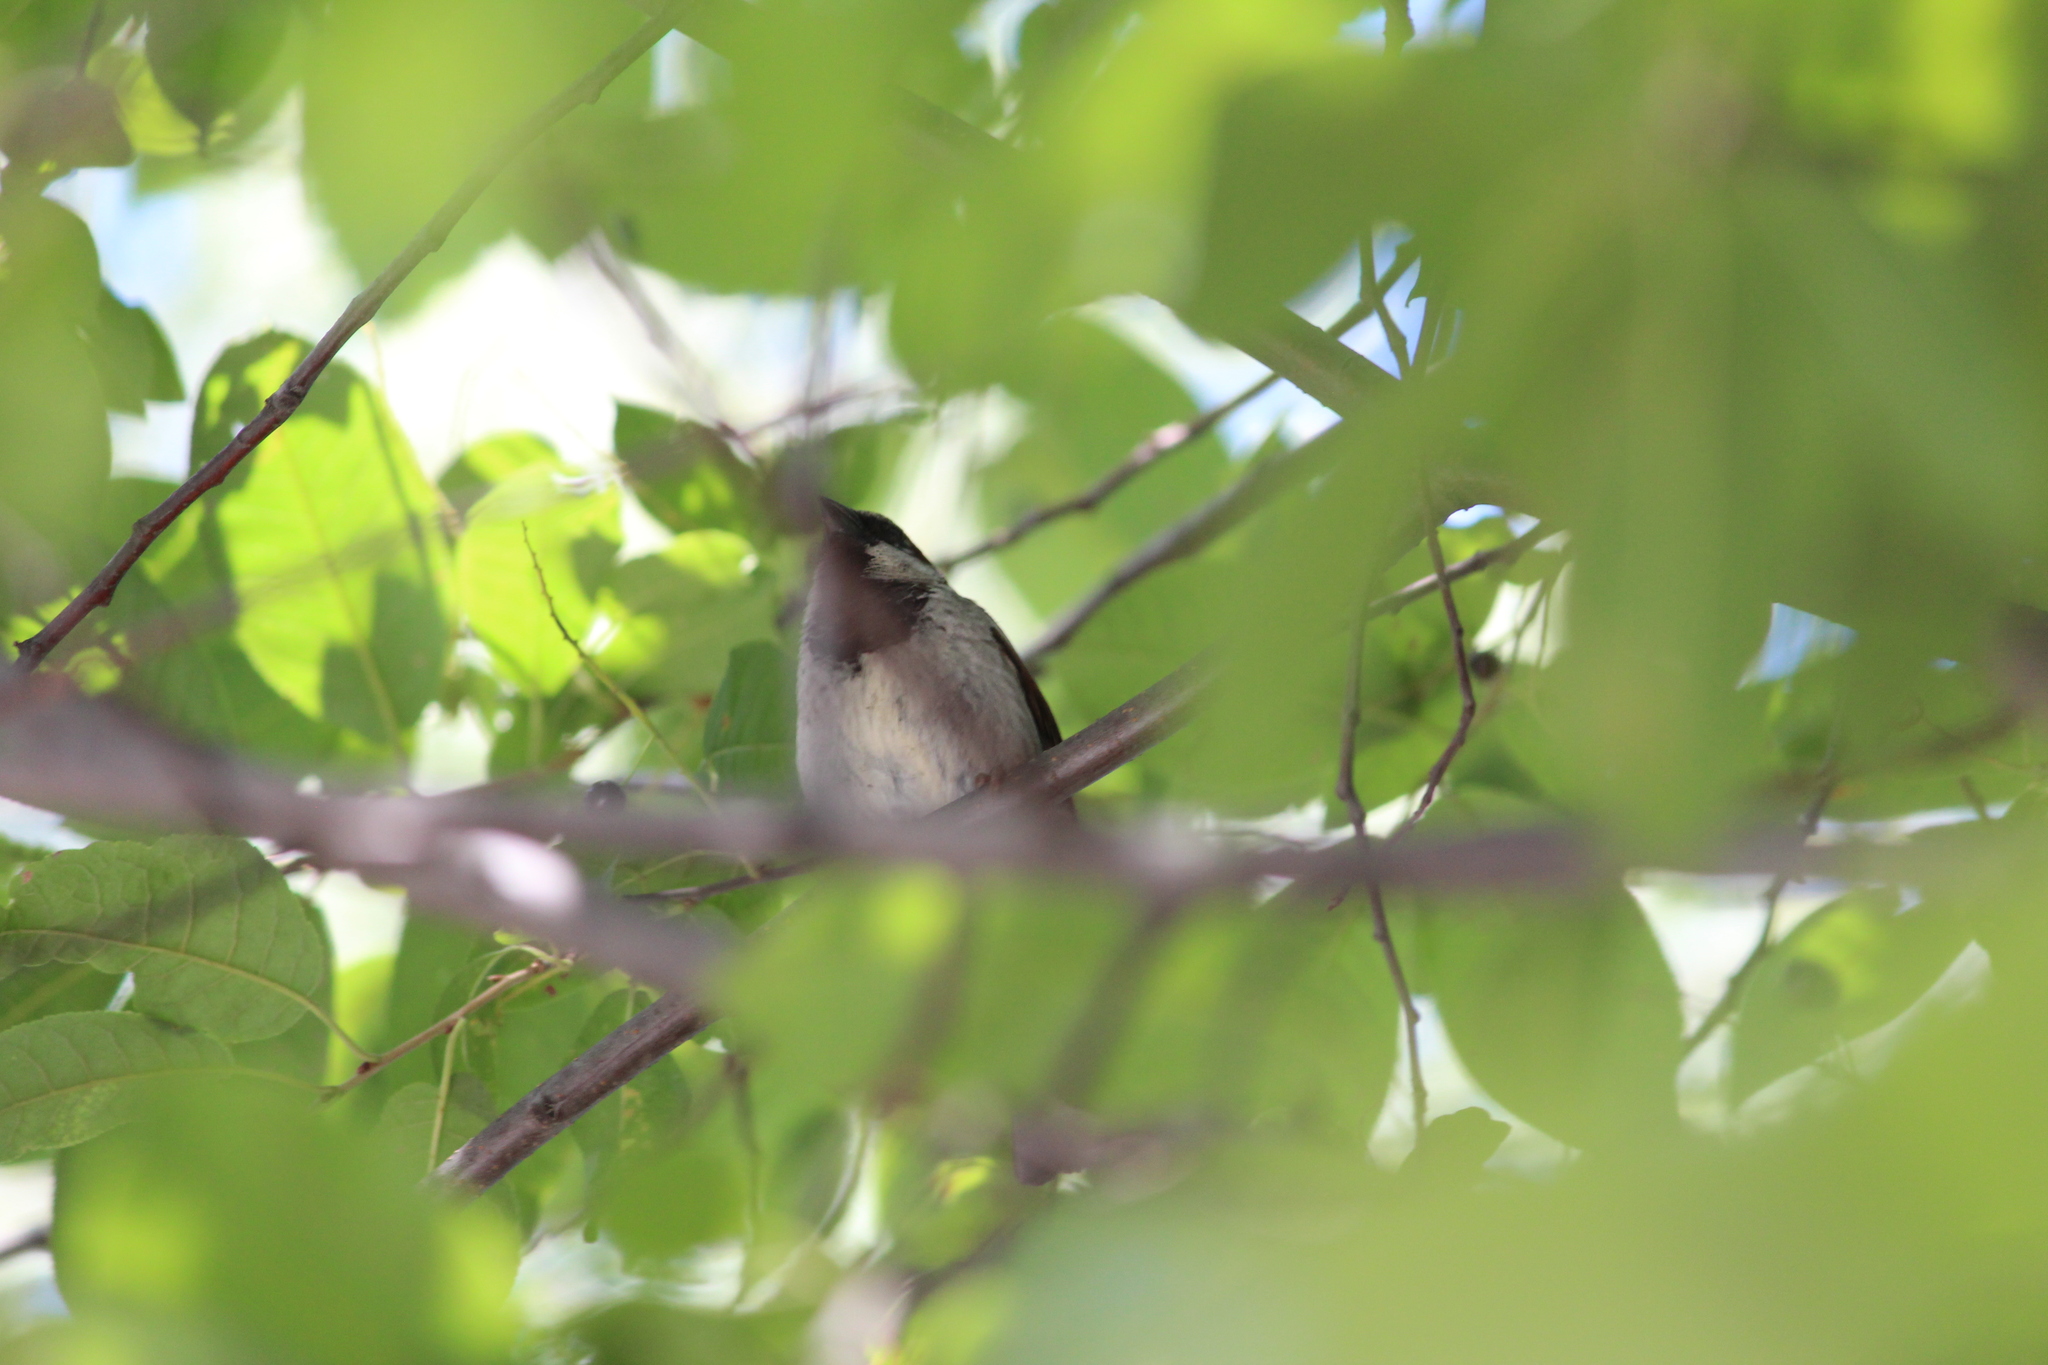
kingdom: Animalia
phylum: Chordata
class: Aves
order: Passeriformes
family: Passeridae
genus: Passer
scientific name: Passer domesticus
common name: House sparrow
